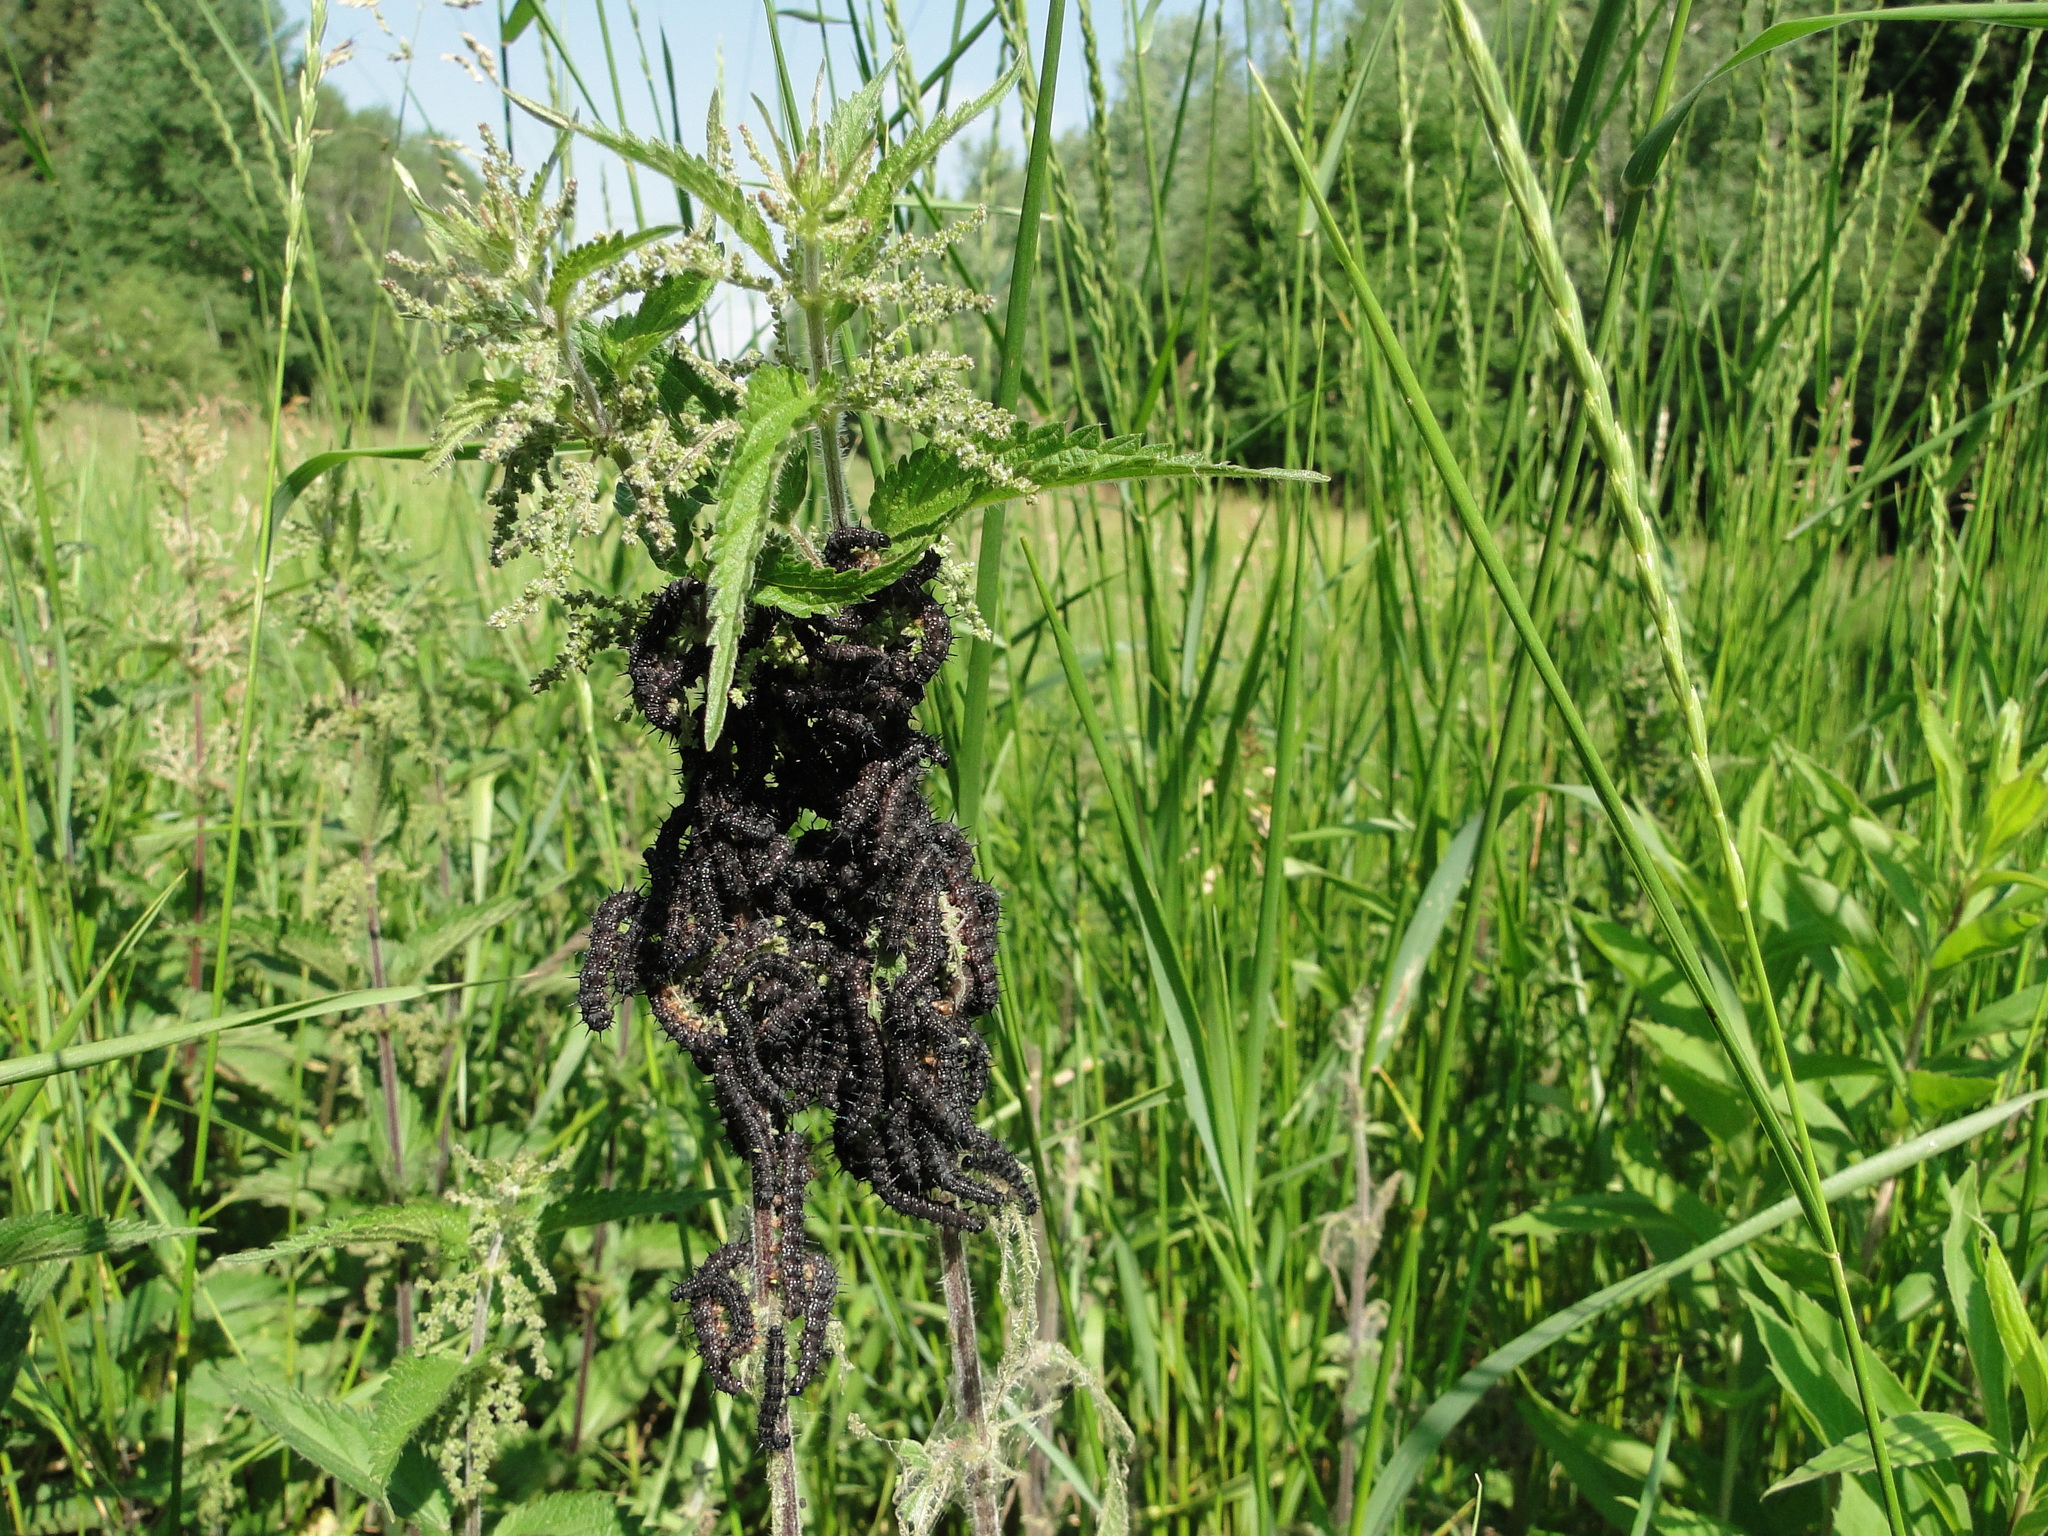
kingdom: Animalia
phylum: Arthropoda
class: Insecta
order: Lepidoptera
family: Nymphalidae
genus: Aglais
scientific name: Aglais io
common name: Peacock
